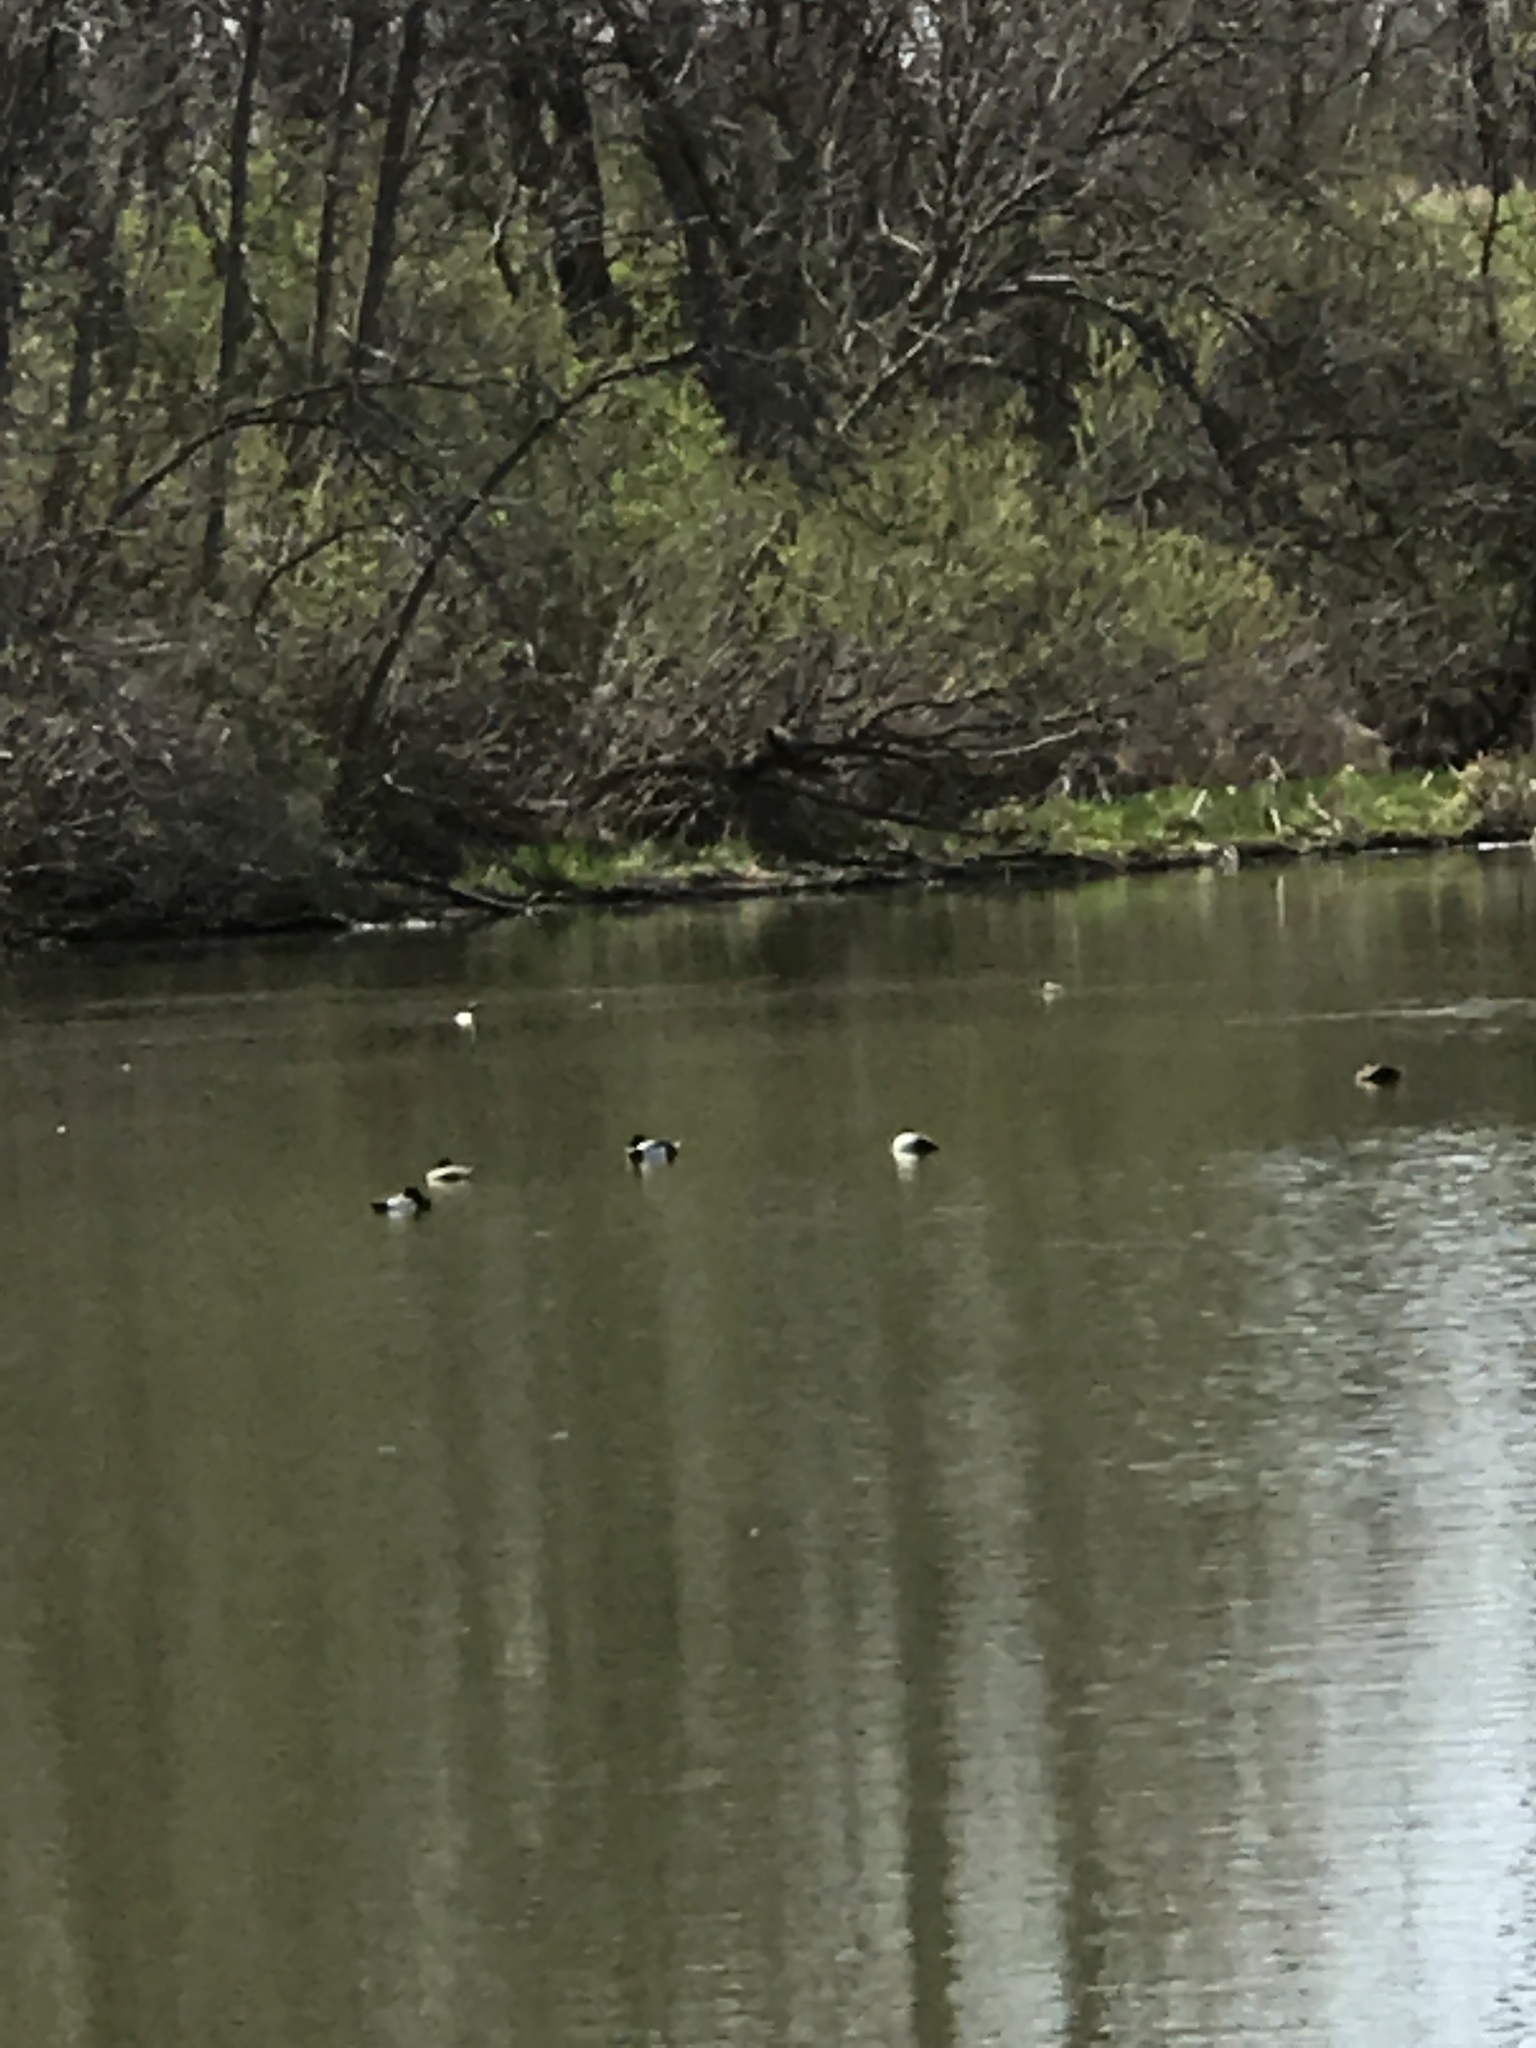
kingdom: Animalia
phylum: Chordata
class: Aves
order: Anseriformes
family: Anatidae
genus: Aythya
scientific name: Aythya collaris
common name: Ring-necked duck
